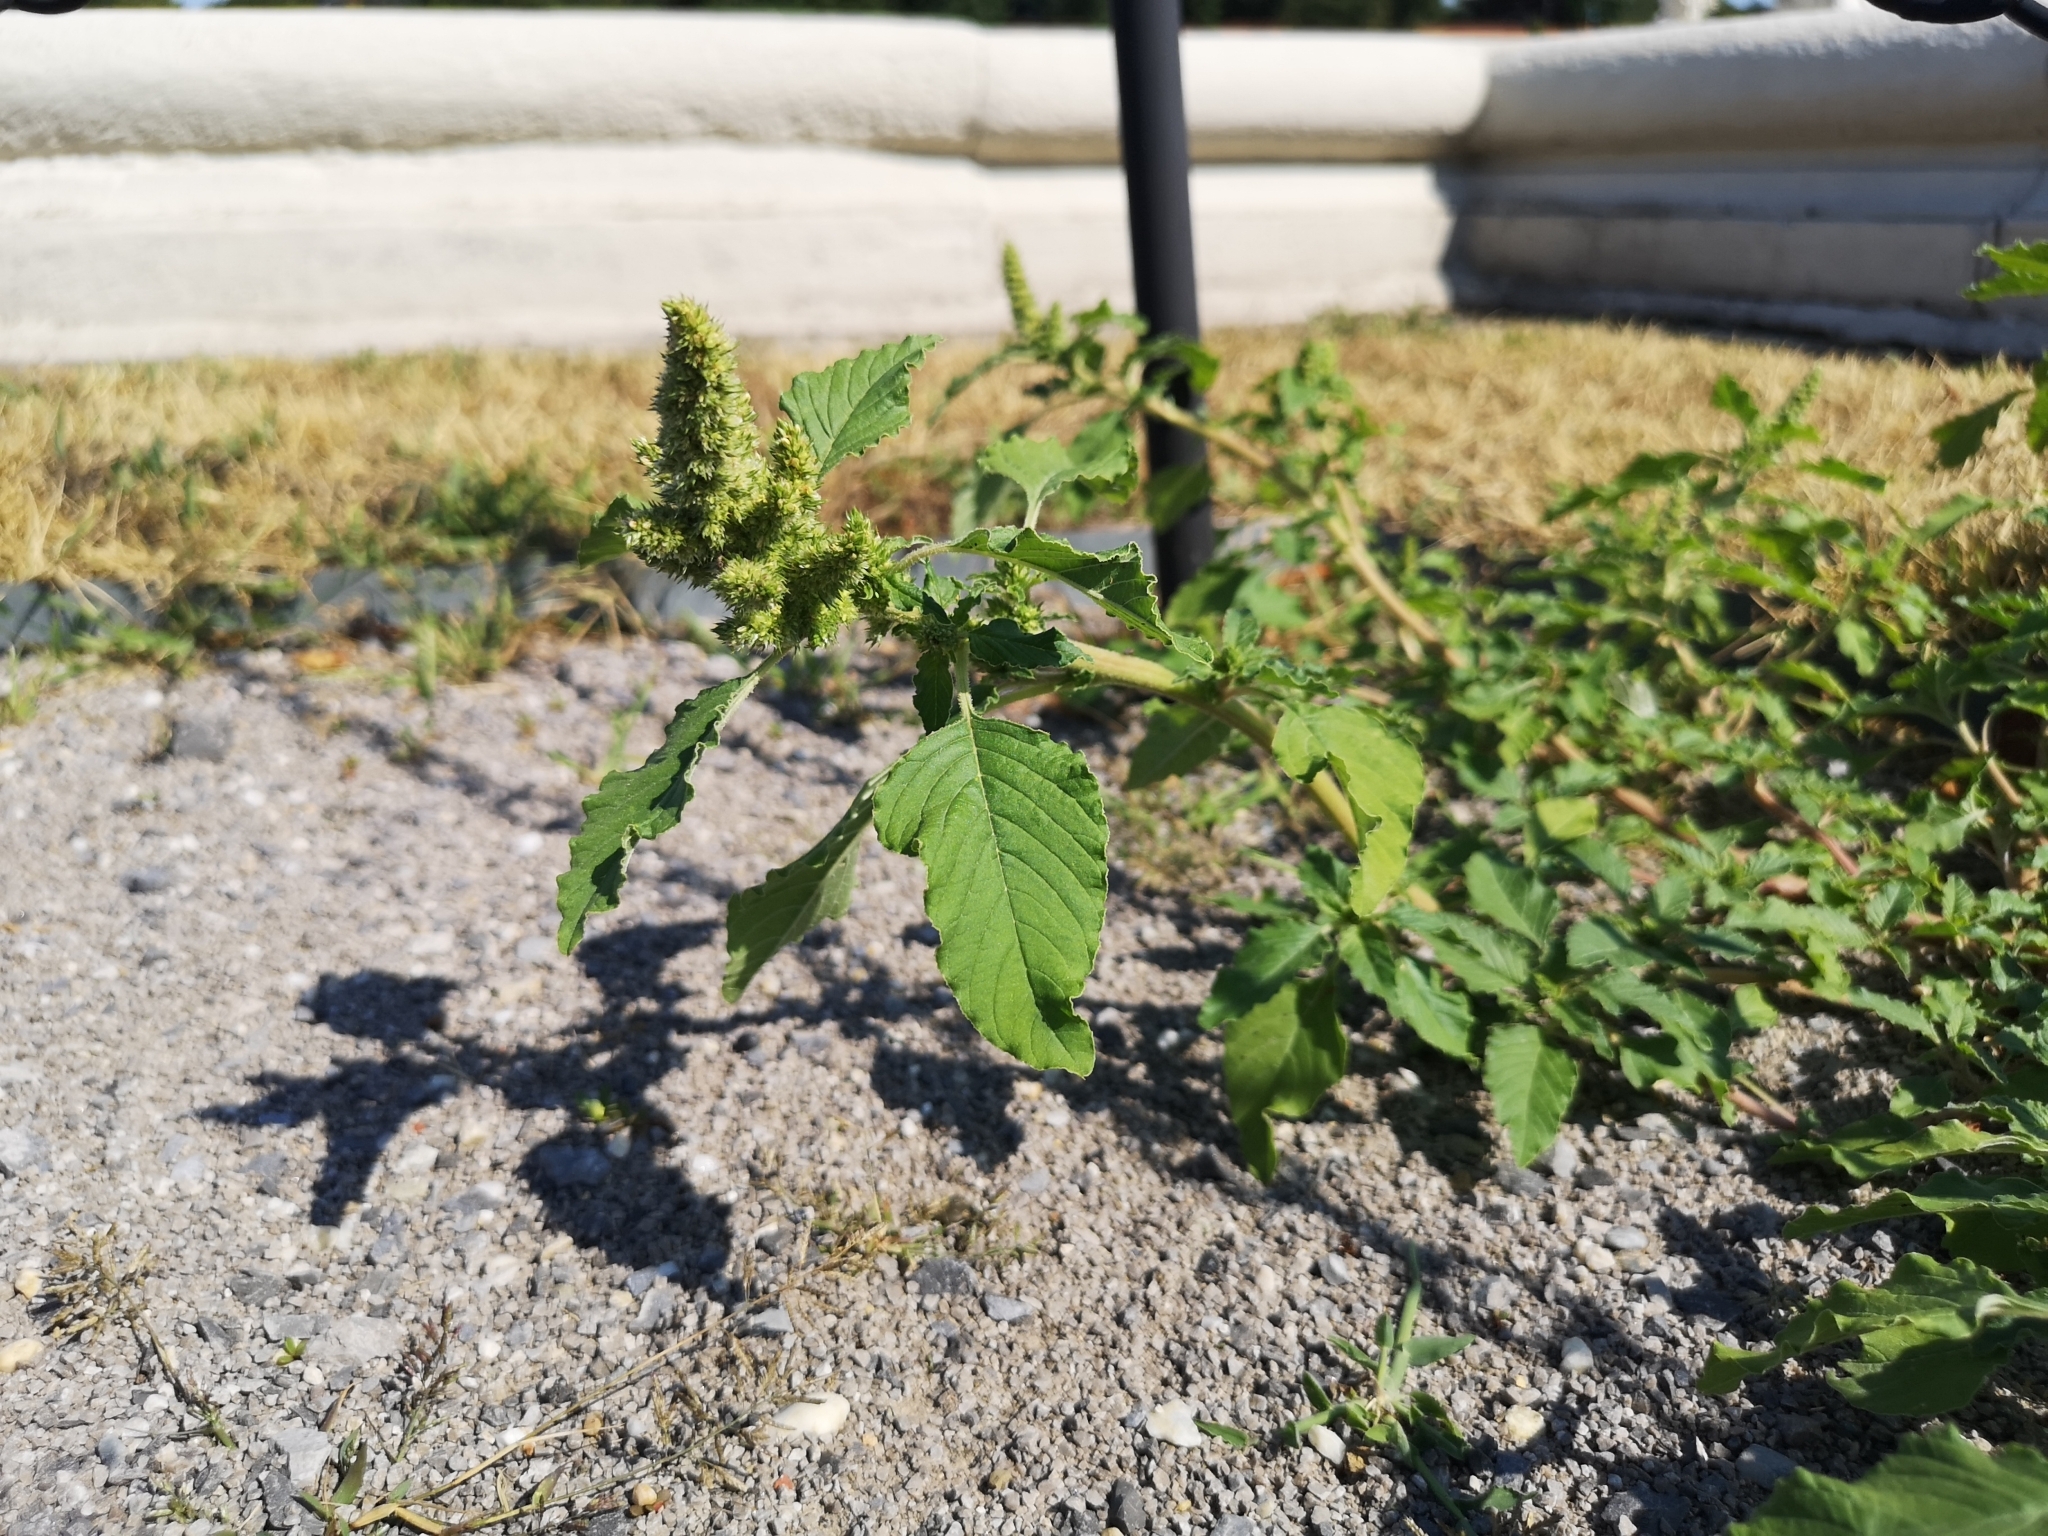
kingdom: Plantae
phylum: Tracheophyta
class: Magnoliopsida
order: Caryophyllales
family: Amaranthaceae
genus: Amaranthus
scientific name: Amaranthus retroflexus
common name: Redroot amaranth
